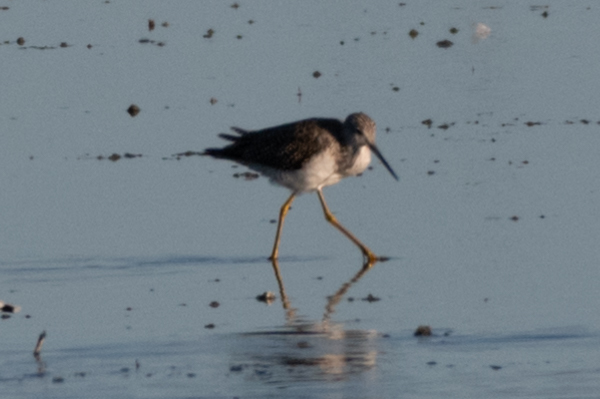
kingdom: Animalia
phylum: Chordata
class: Aves
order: Charadriiformes
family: Scolopacidae
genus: Tringa
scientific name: Tringa melanoleuca
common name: Greater yellowlegs
